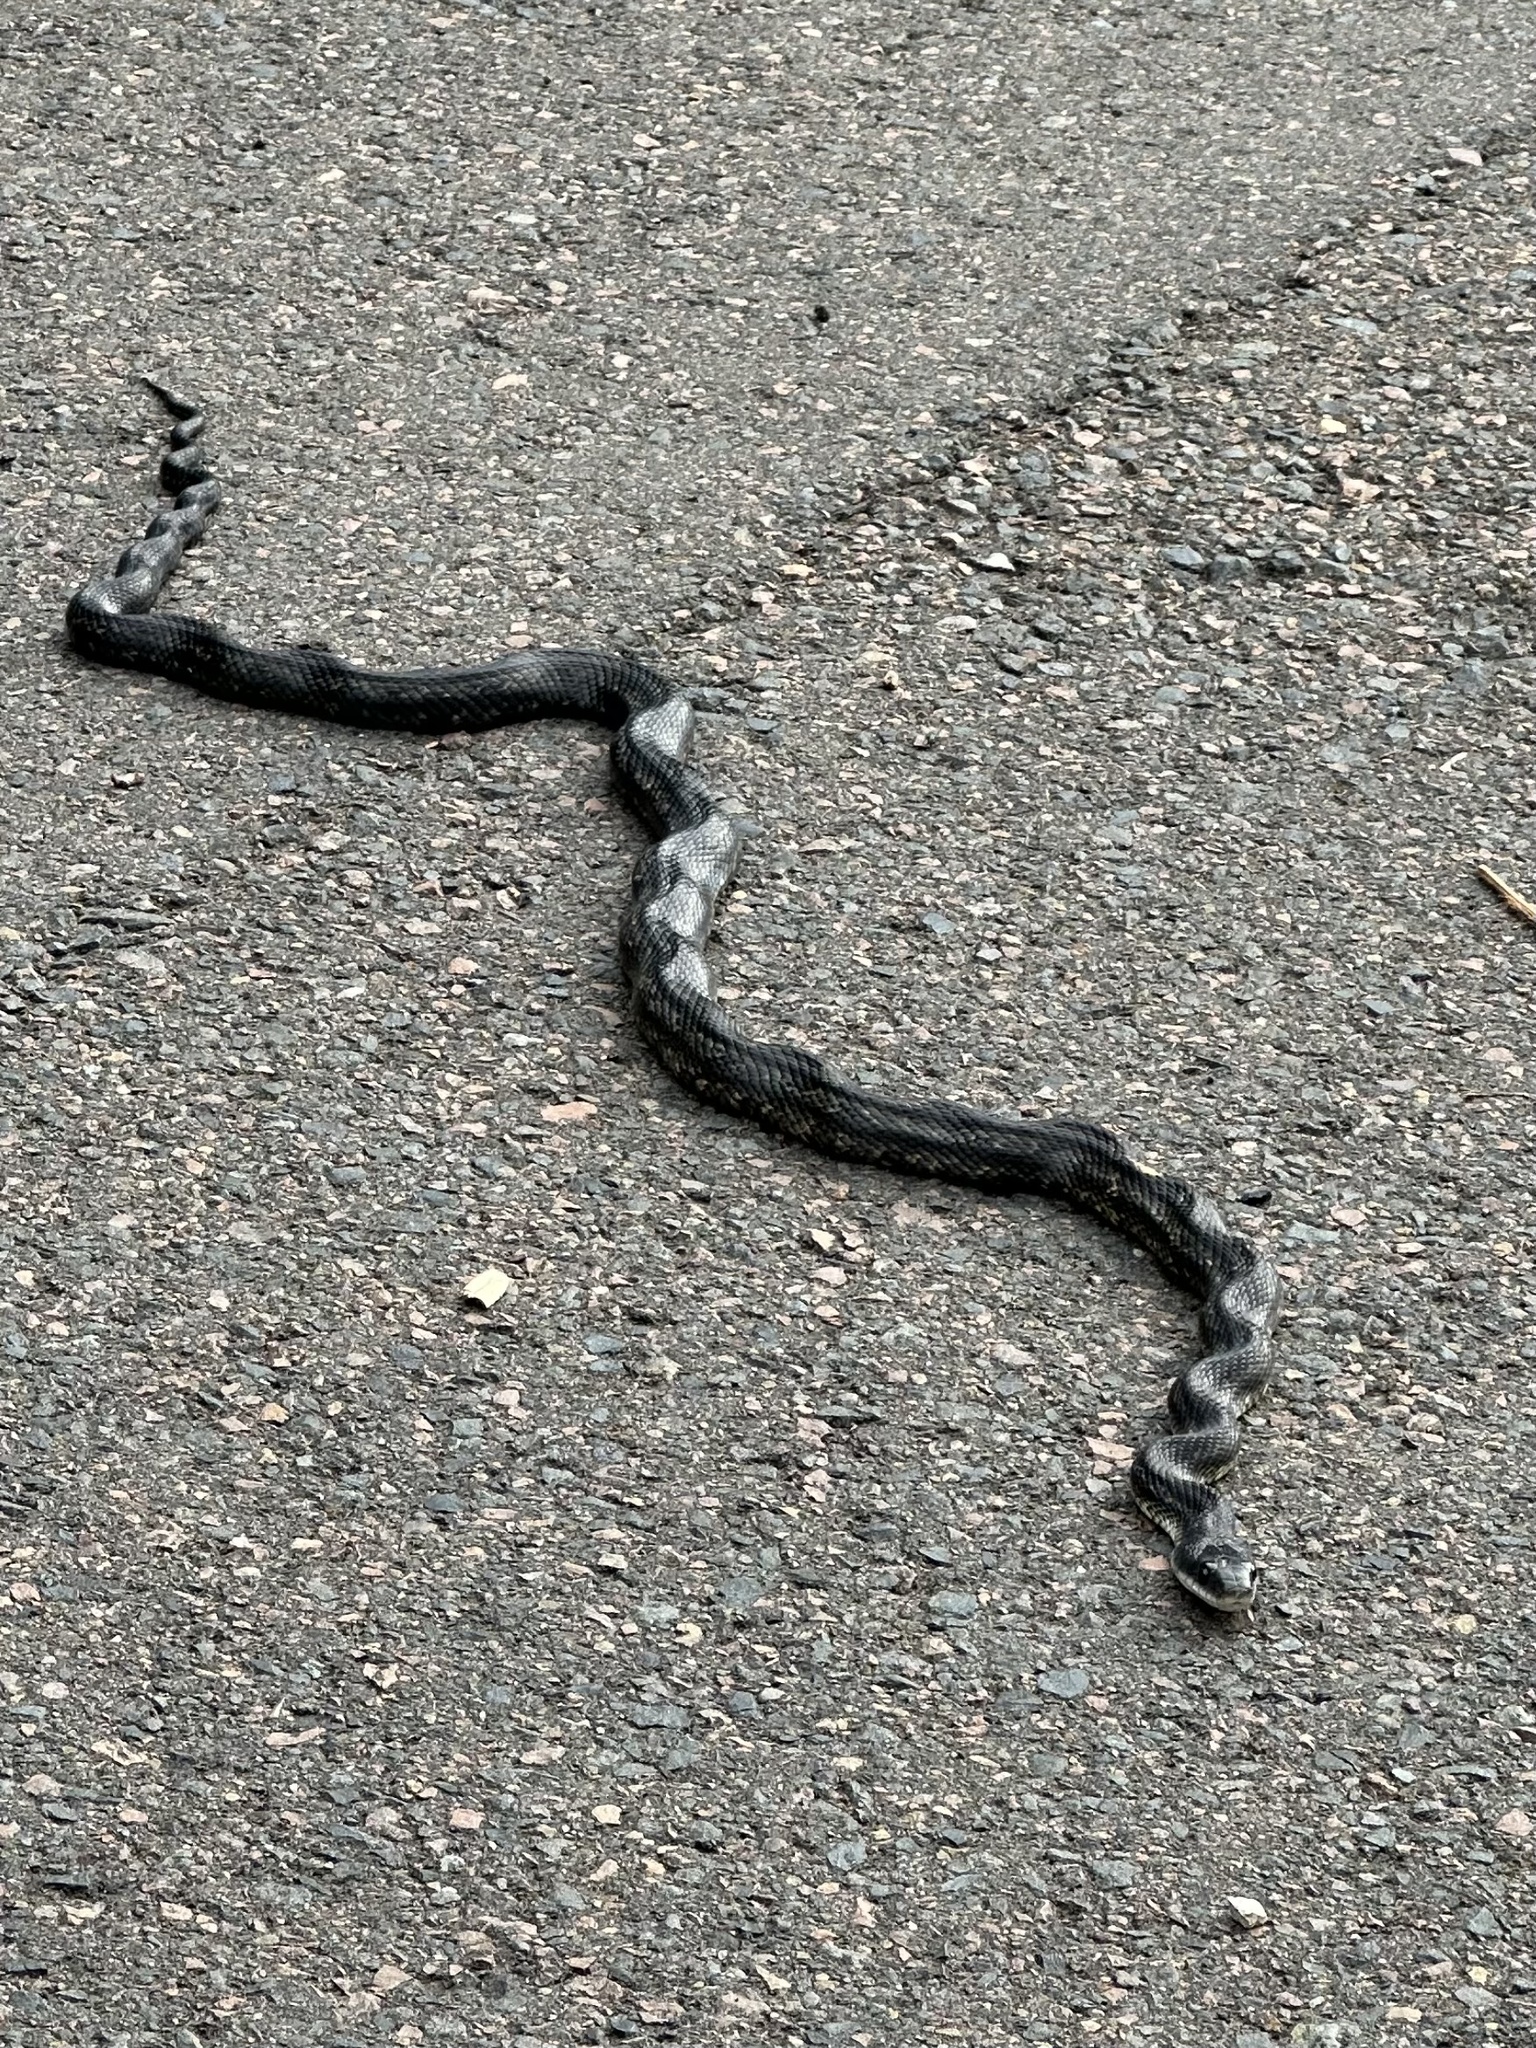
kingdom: Animalia
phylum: Chordata
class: Squamata
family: Colubridae
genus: Pantherophis
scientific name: Pantherophis obsoletus
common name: Black rat snake
